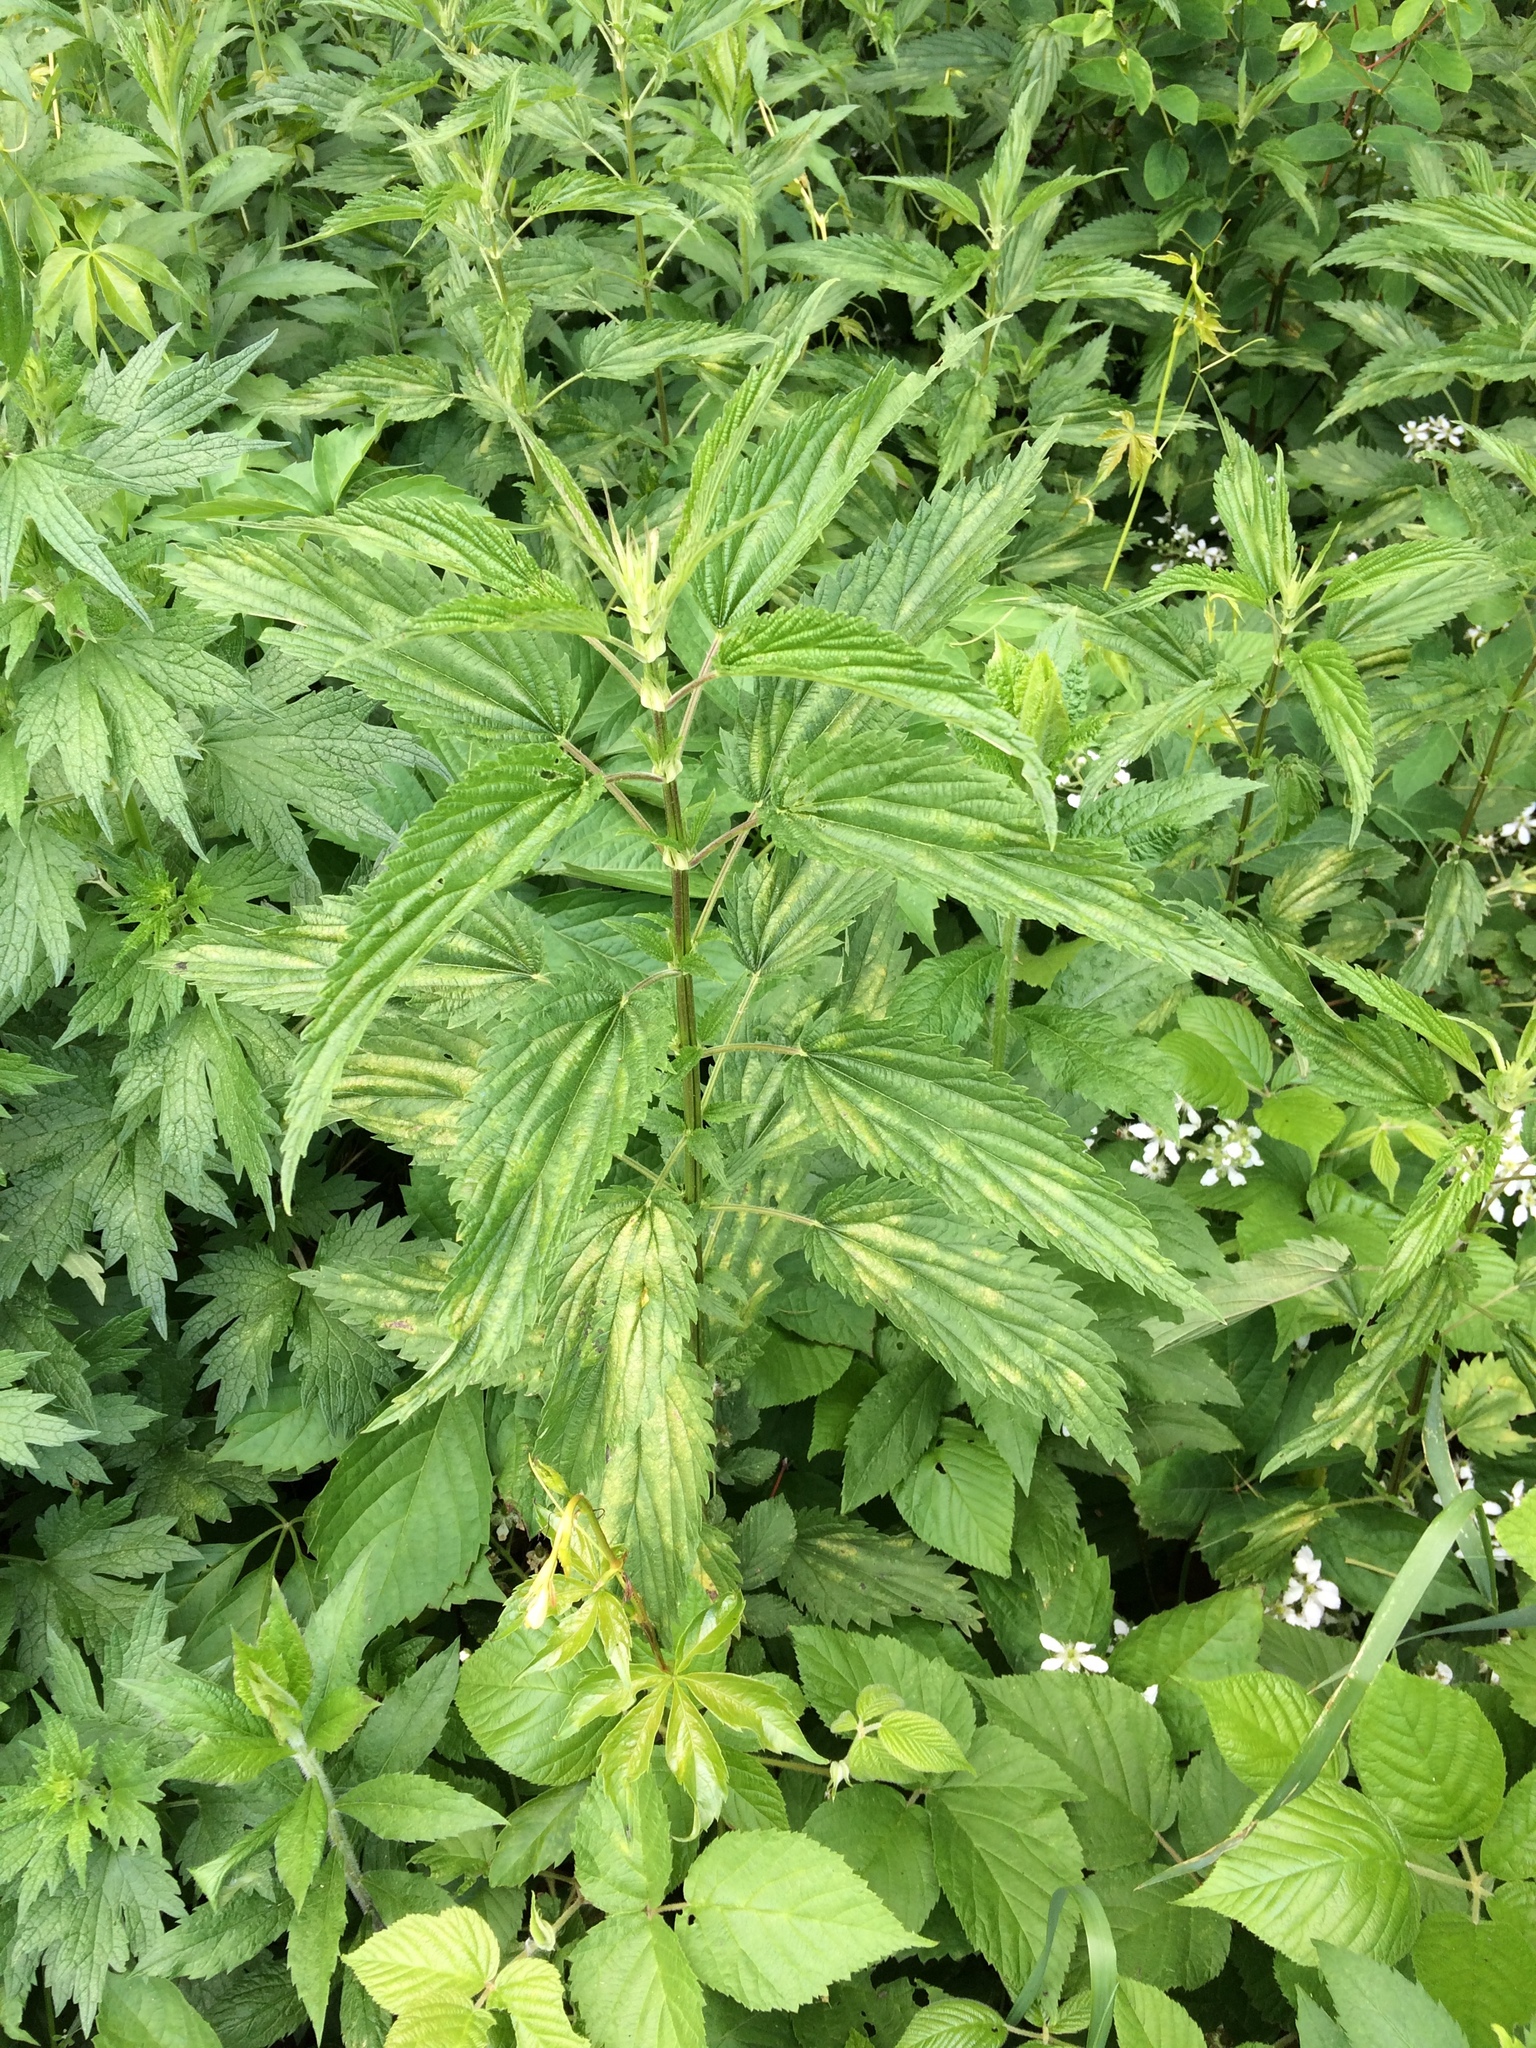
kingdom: Plantae
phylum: Tracheophyta
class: Magnoliopsida
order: Rosales
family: Urticaceae
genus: Urtica
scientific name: Urtica dioica
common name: Common nettle
